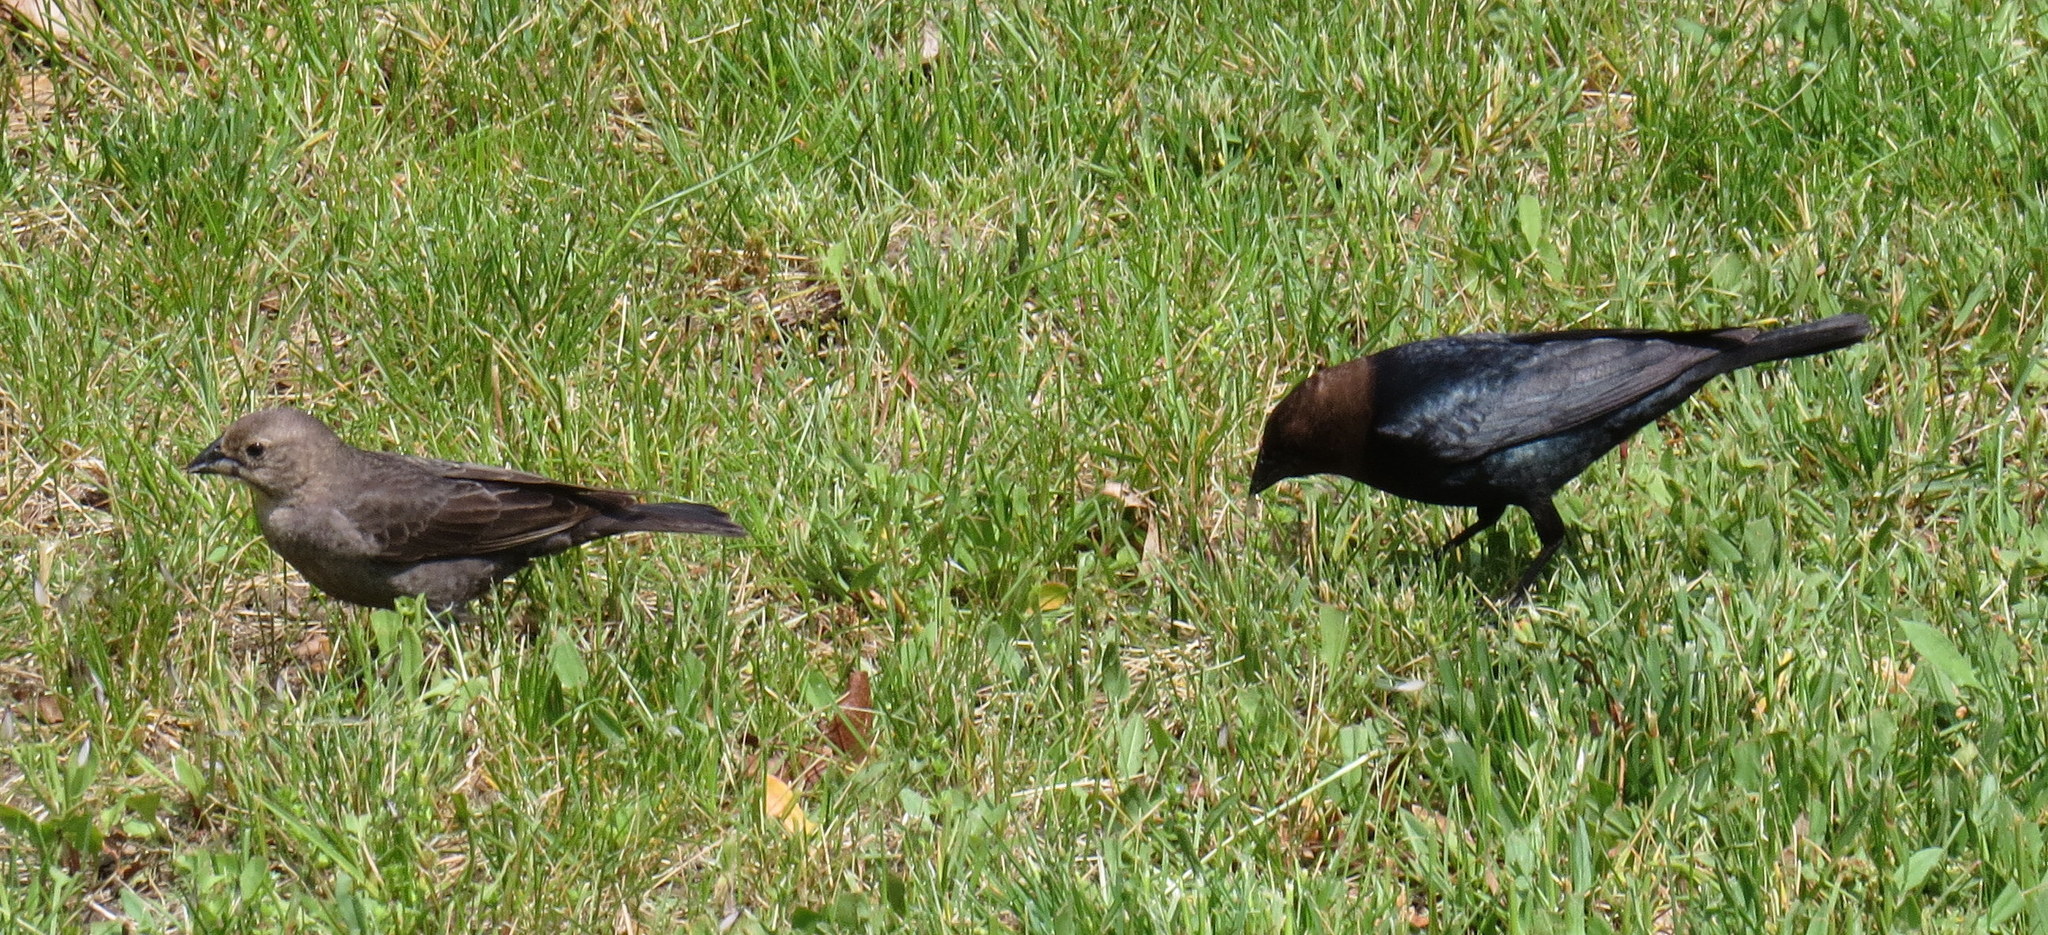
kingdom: Animalia
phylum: Chordata
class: Aves
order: Passeriformes
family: Icteridae
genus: Molothrus
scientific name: Molothrus ater
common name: Brown-headed cowbird
